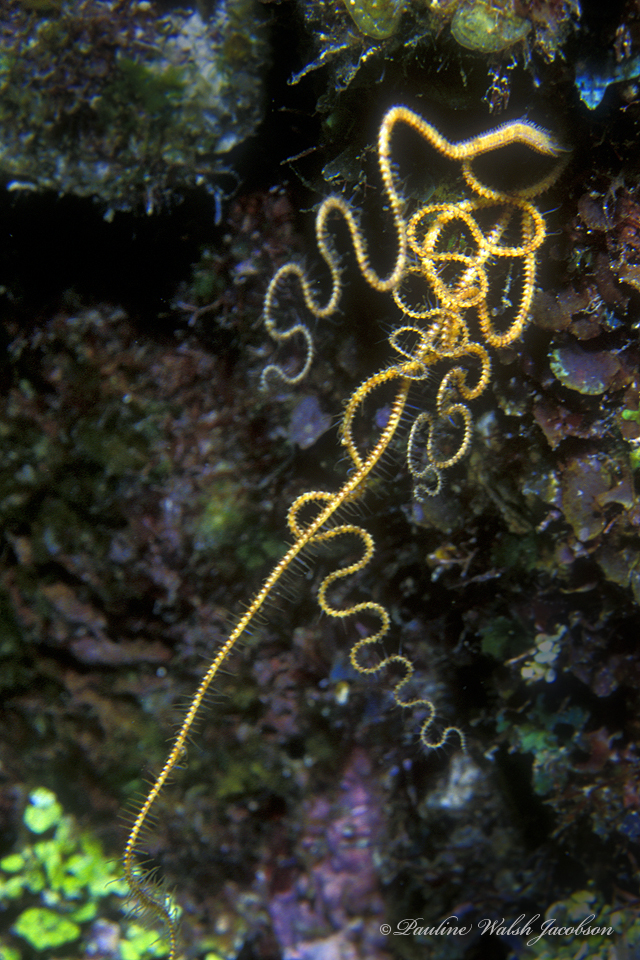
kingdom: Animalia
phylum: Echinodermata
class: Ophiuroidea
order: Amphilepidida
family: Ophiopsilidae
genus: Ophiopsila
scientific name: Ophiopsila riisei
